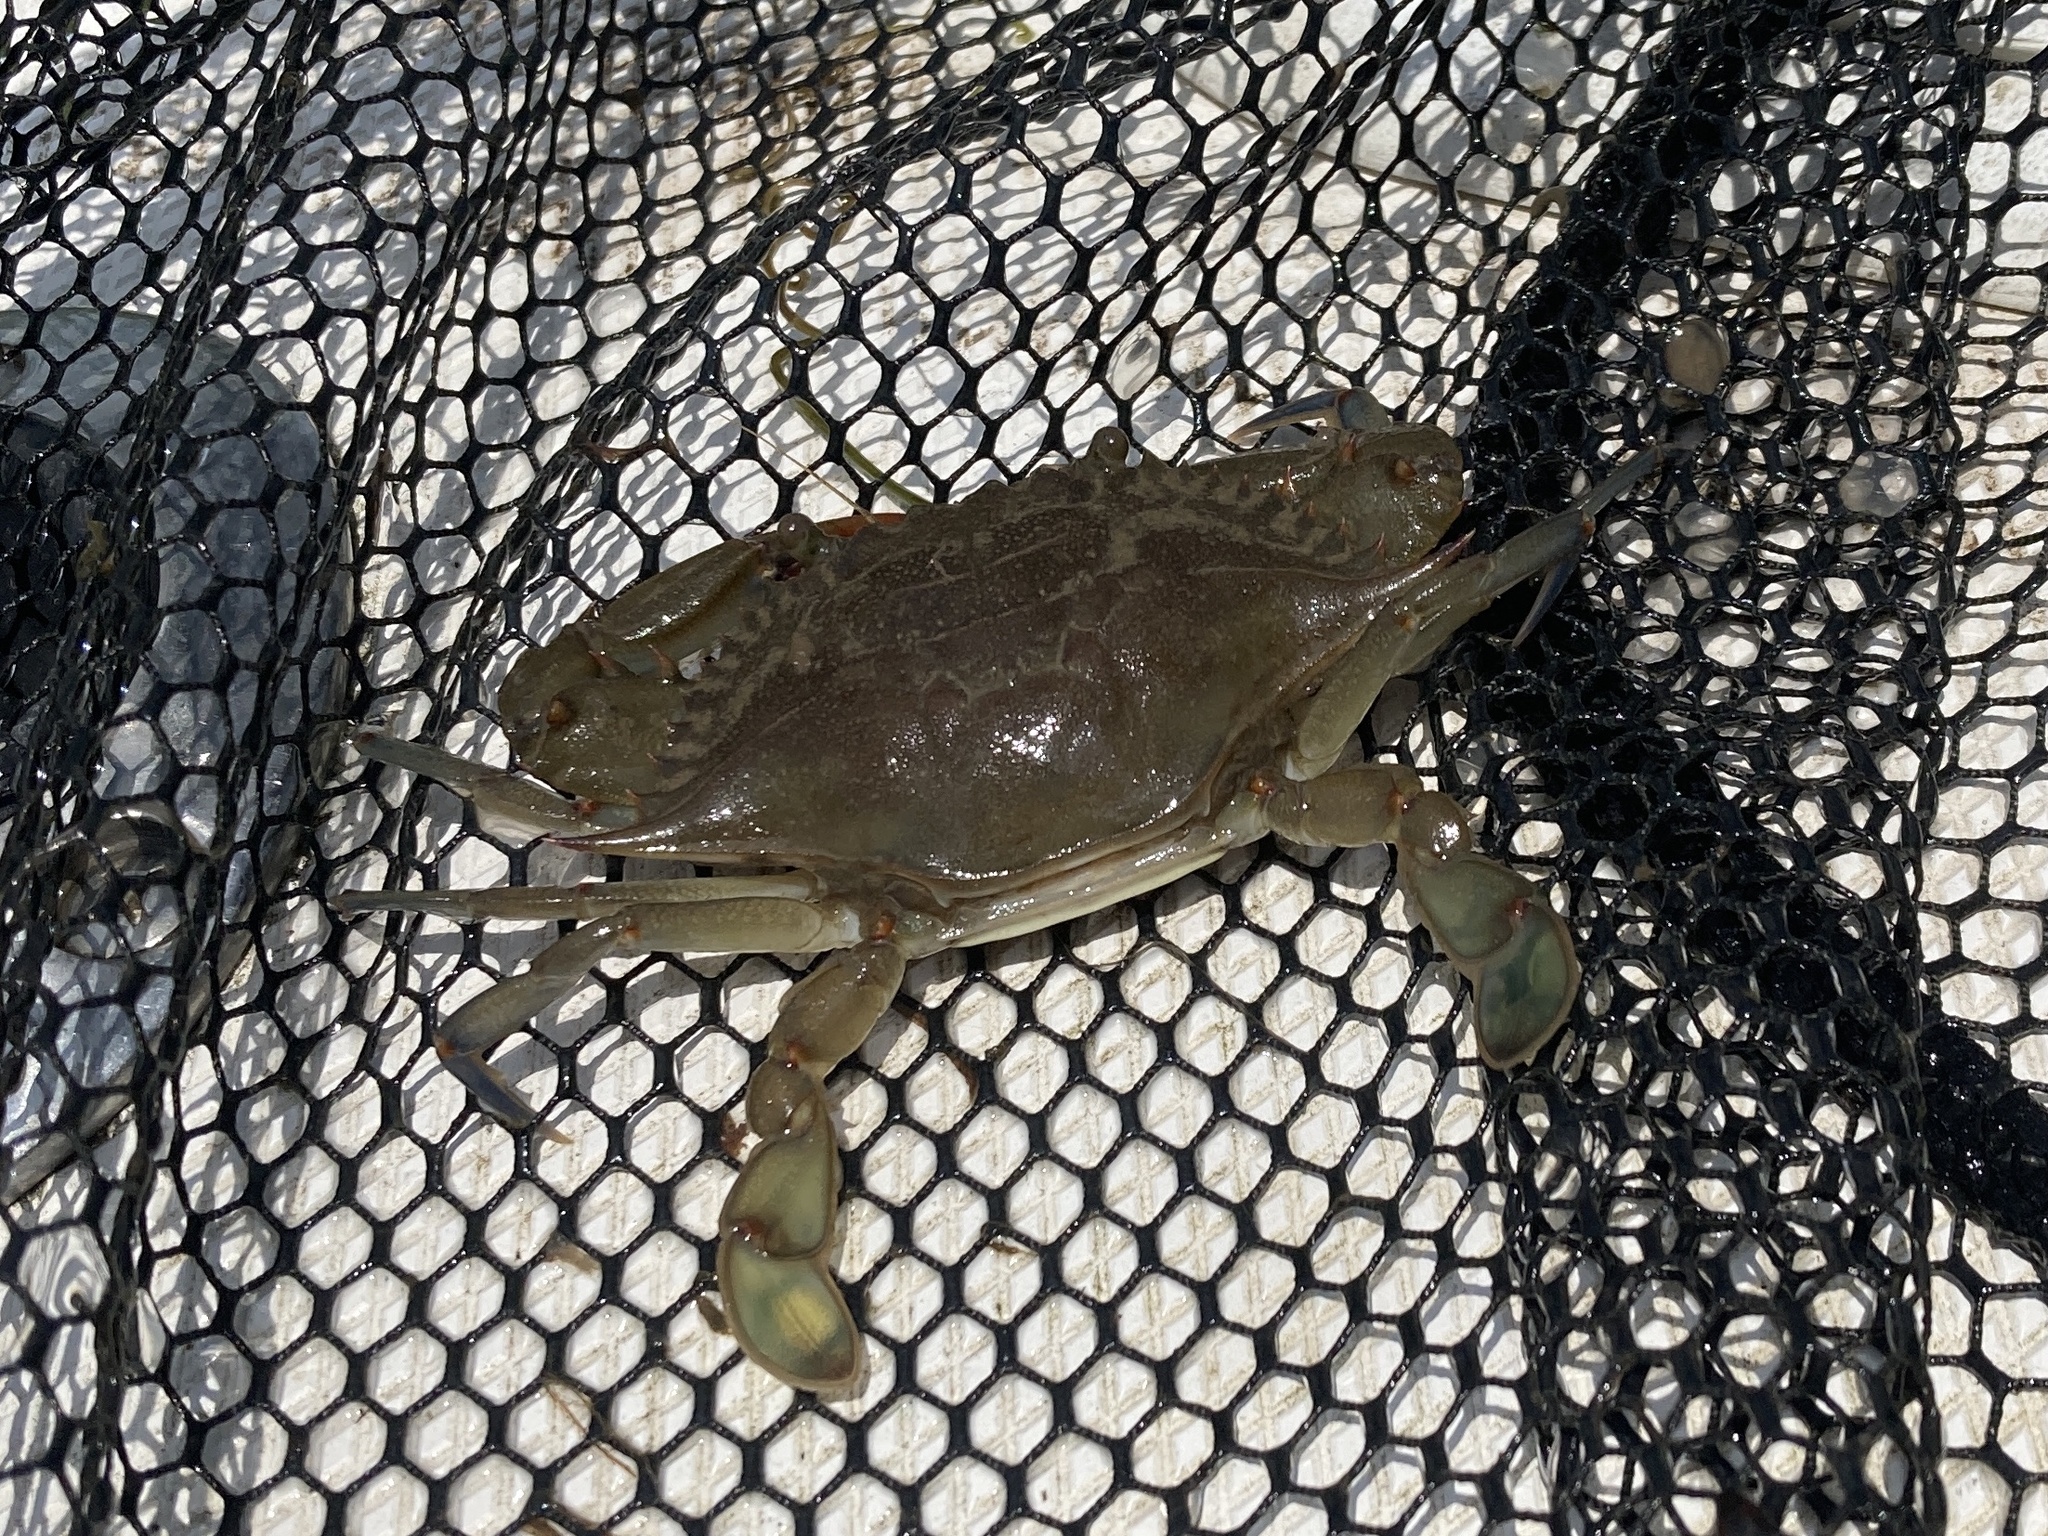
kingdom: Animalia
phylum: Arthropoda
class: Malacostraca
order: Decapoda
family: Portunidae
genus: Callinectes
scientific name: Callinectes sapidus
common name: Blue crab
